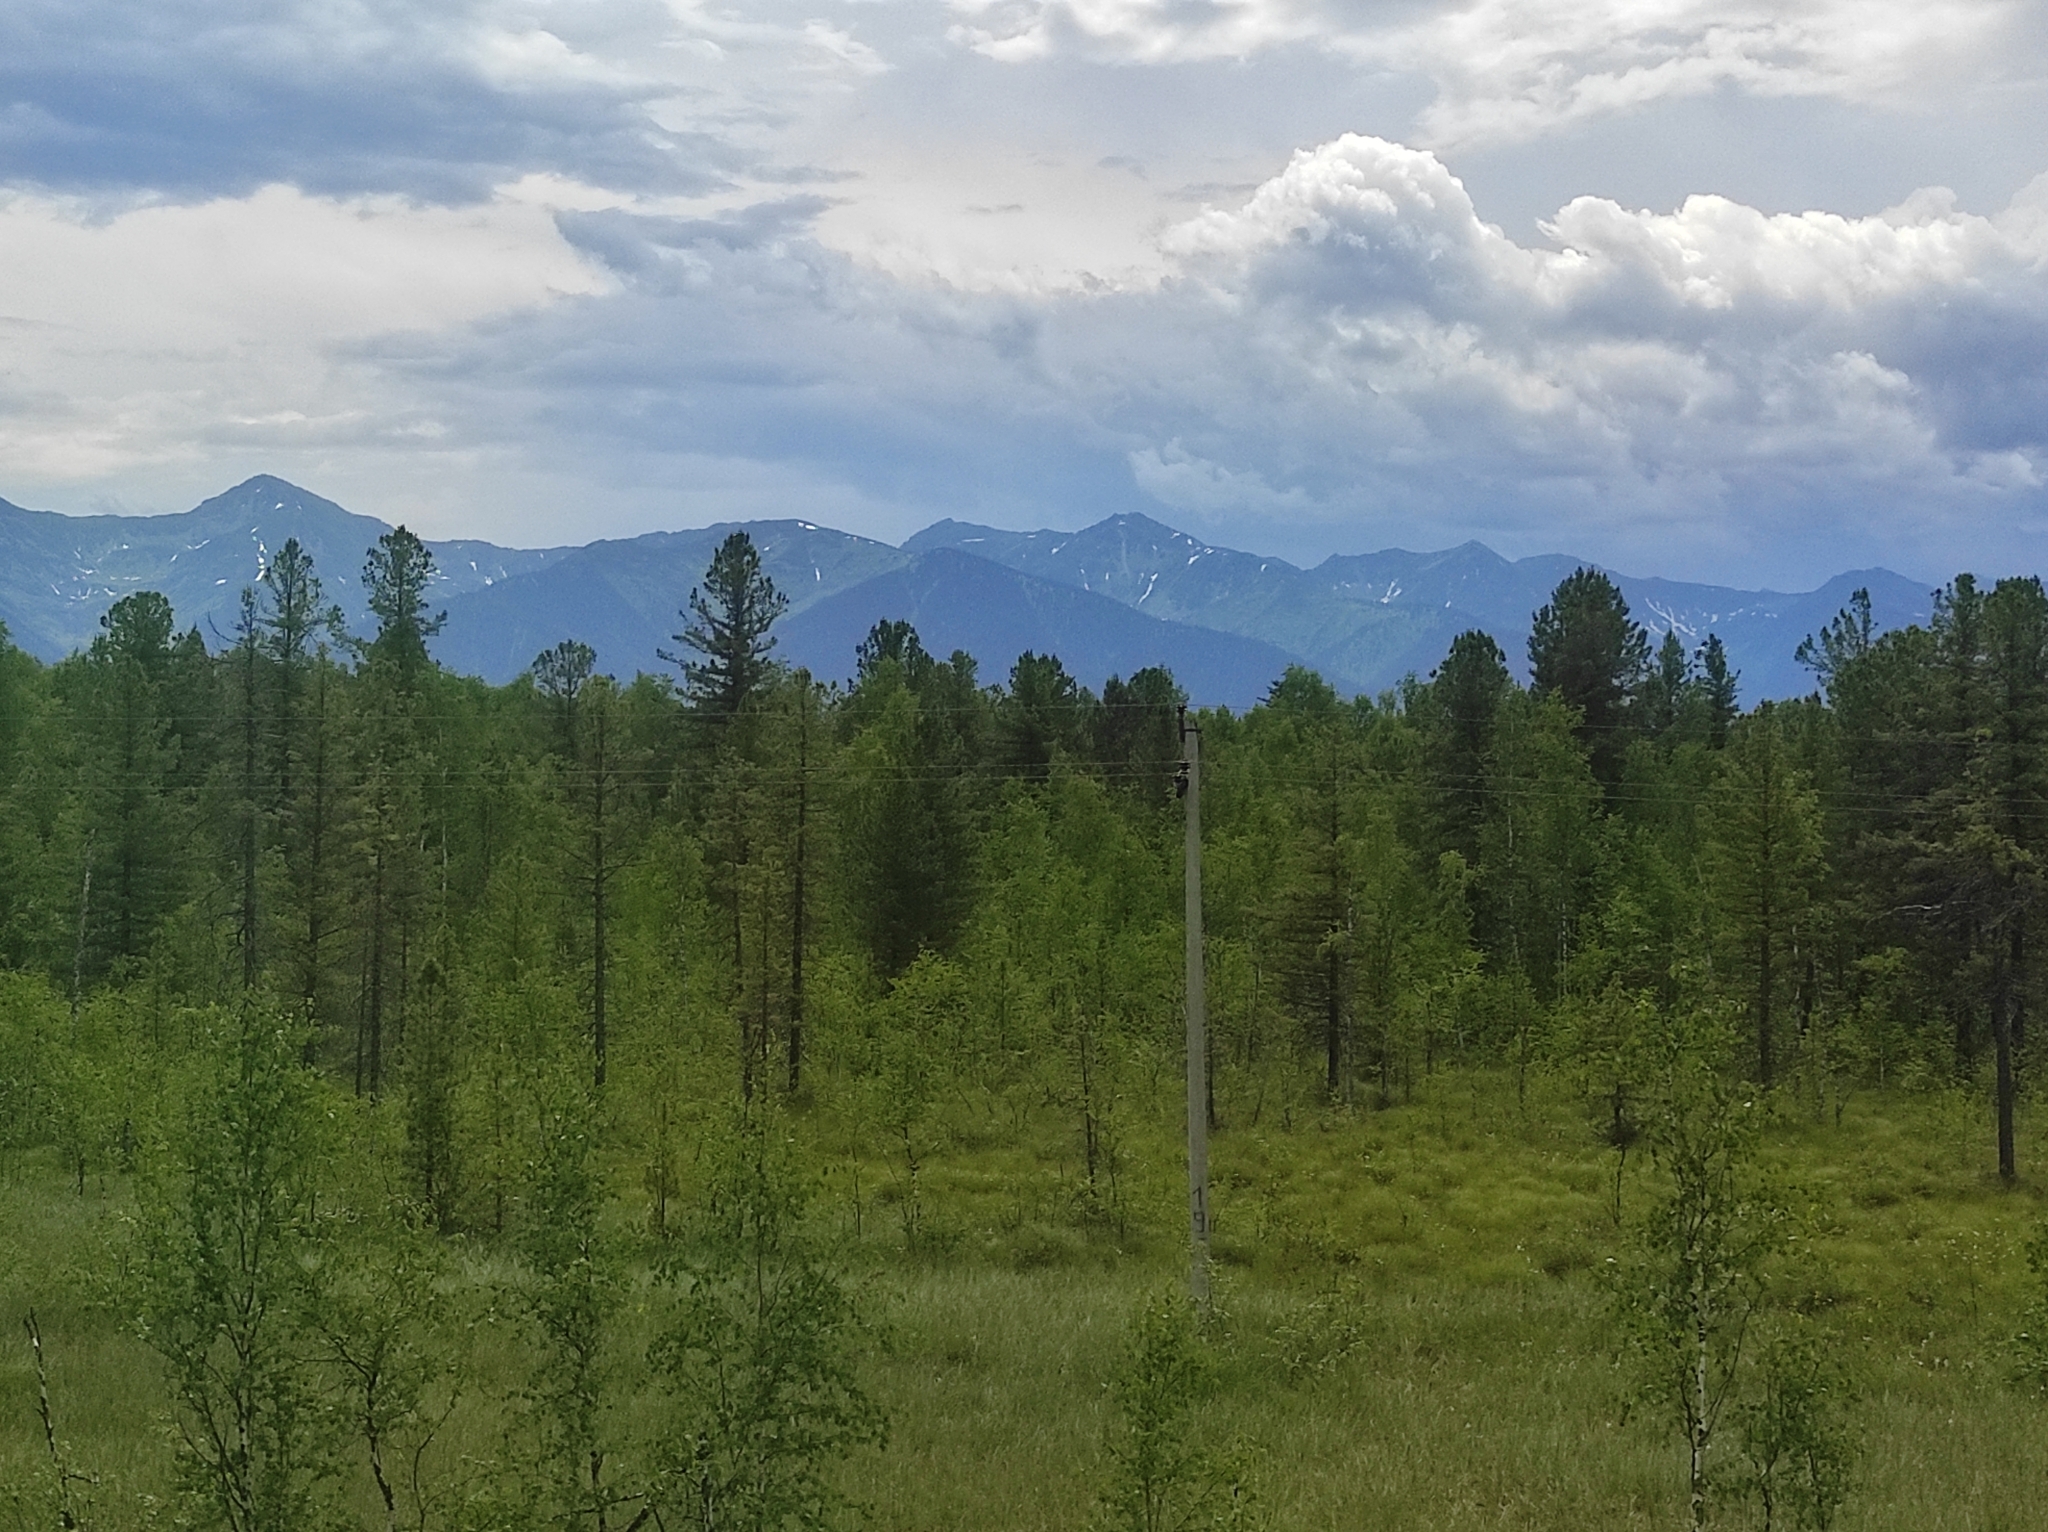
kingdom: Plantae
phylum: Tracheophyta
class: Pinopsida
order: Pinales
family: Pinaceae
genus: Pinus
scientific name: Pinus sibirica
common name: Siberian pine
